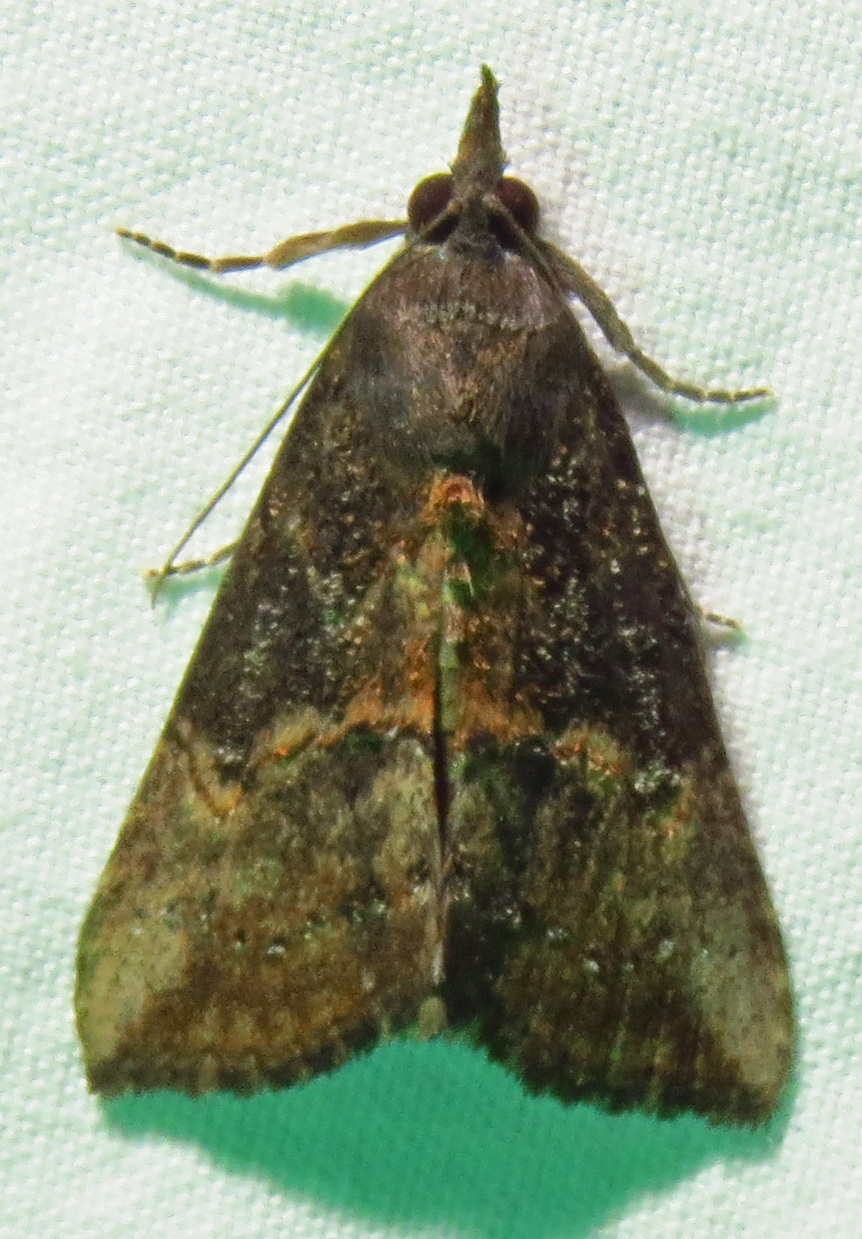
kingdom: Animalia
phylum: Arthropoda
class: Insecta
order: Lepidoptera
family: Erebidae
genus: Hypena
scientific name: Hypena scabra
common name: Green cloverworm
